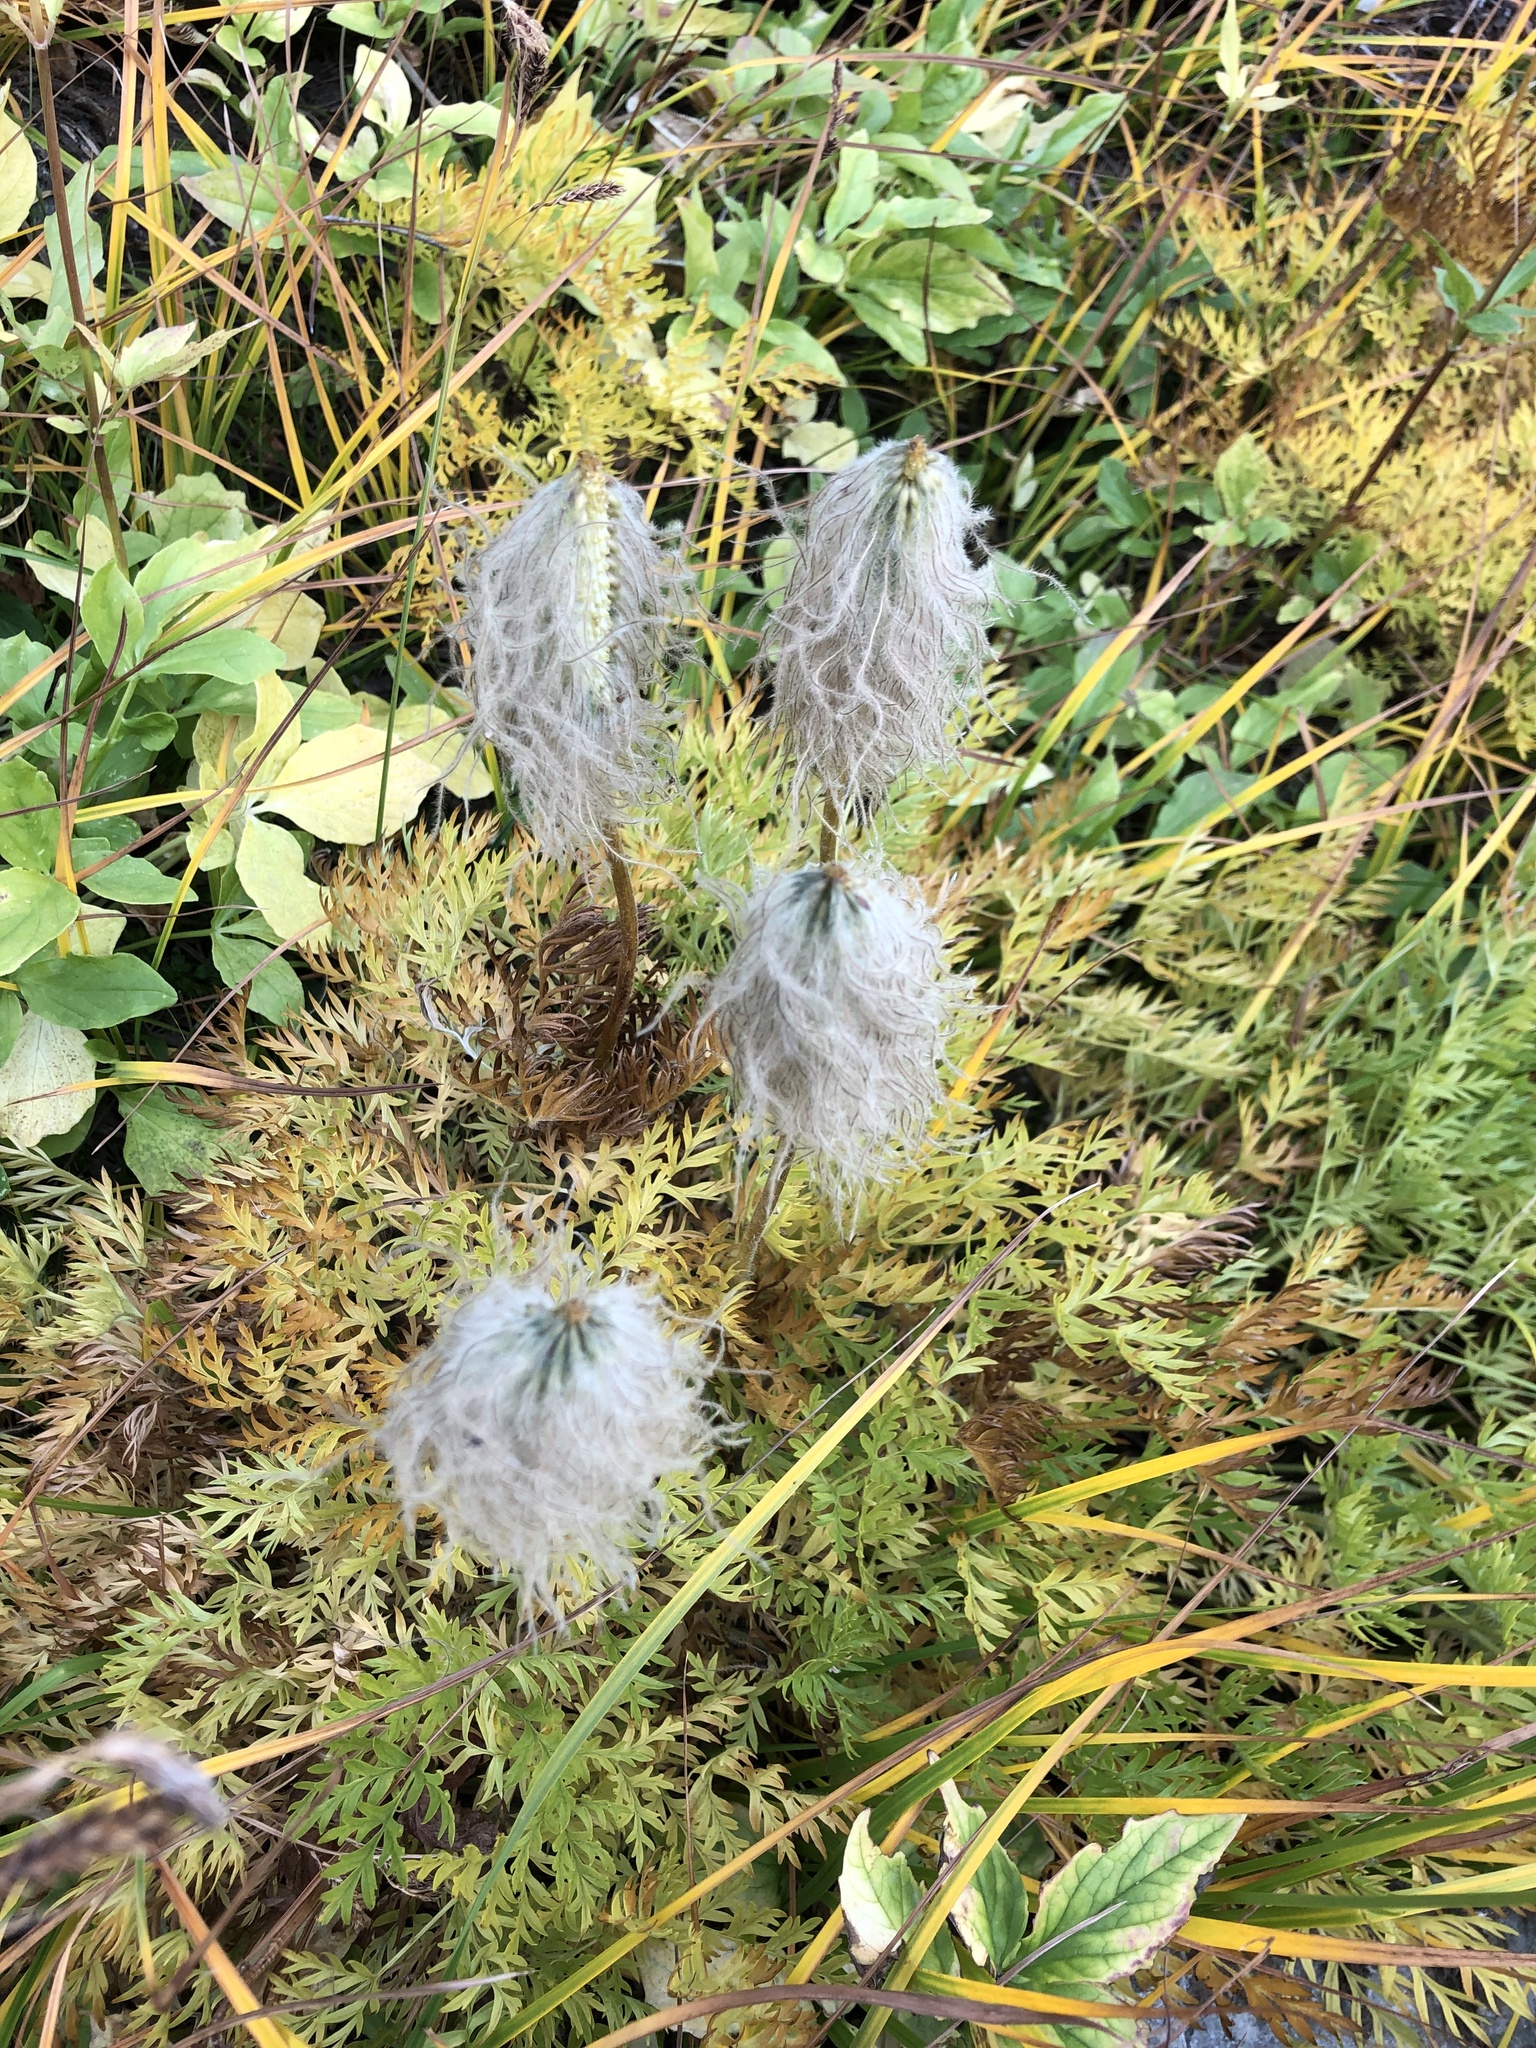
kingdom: Plantae
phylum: Tracheophyta
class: Magnoliopsida
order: Ranunculales
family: Ranunculaceae
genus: Pulsatilla
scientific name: Pulsatilla occidentalis
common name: Mountain pasqueflower
